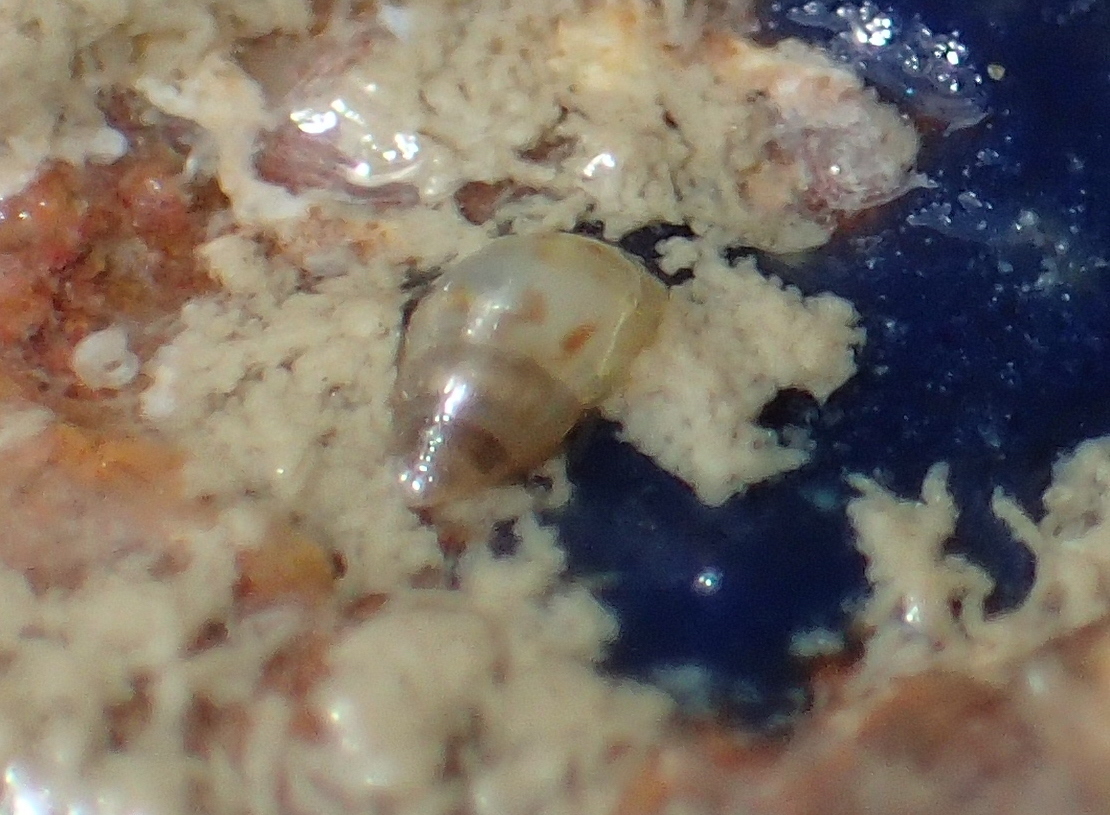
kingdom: Animalia
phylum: Mollusca
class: Gastropoda
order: Littorinimorpha
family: Rissoidae
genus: Crisilla
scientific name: Crisilla semistriata
